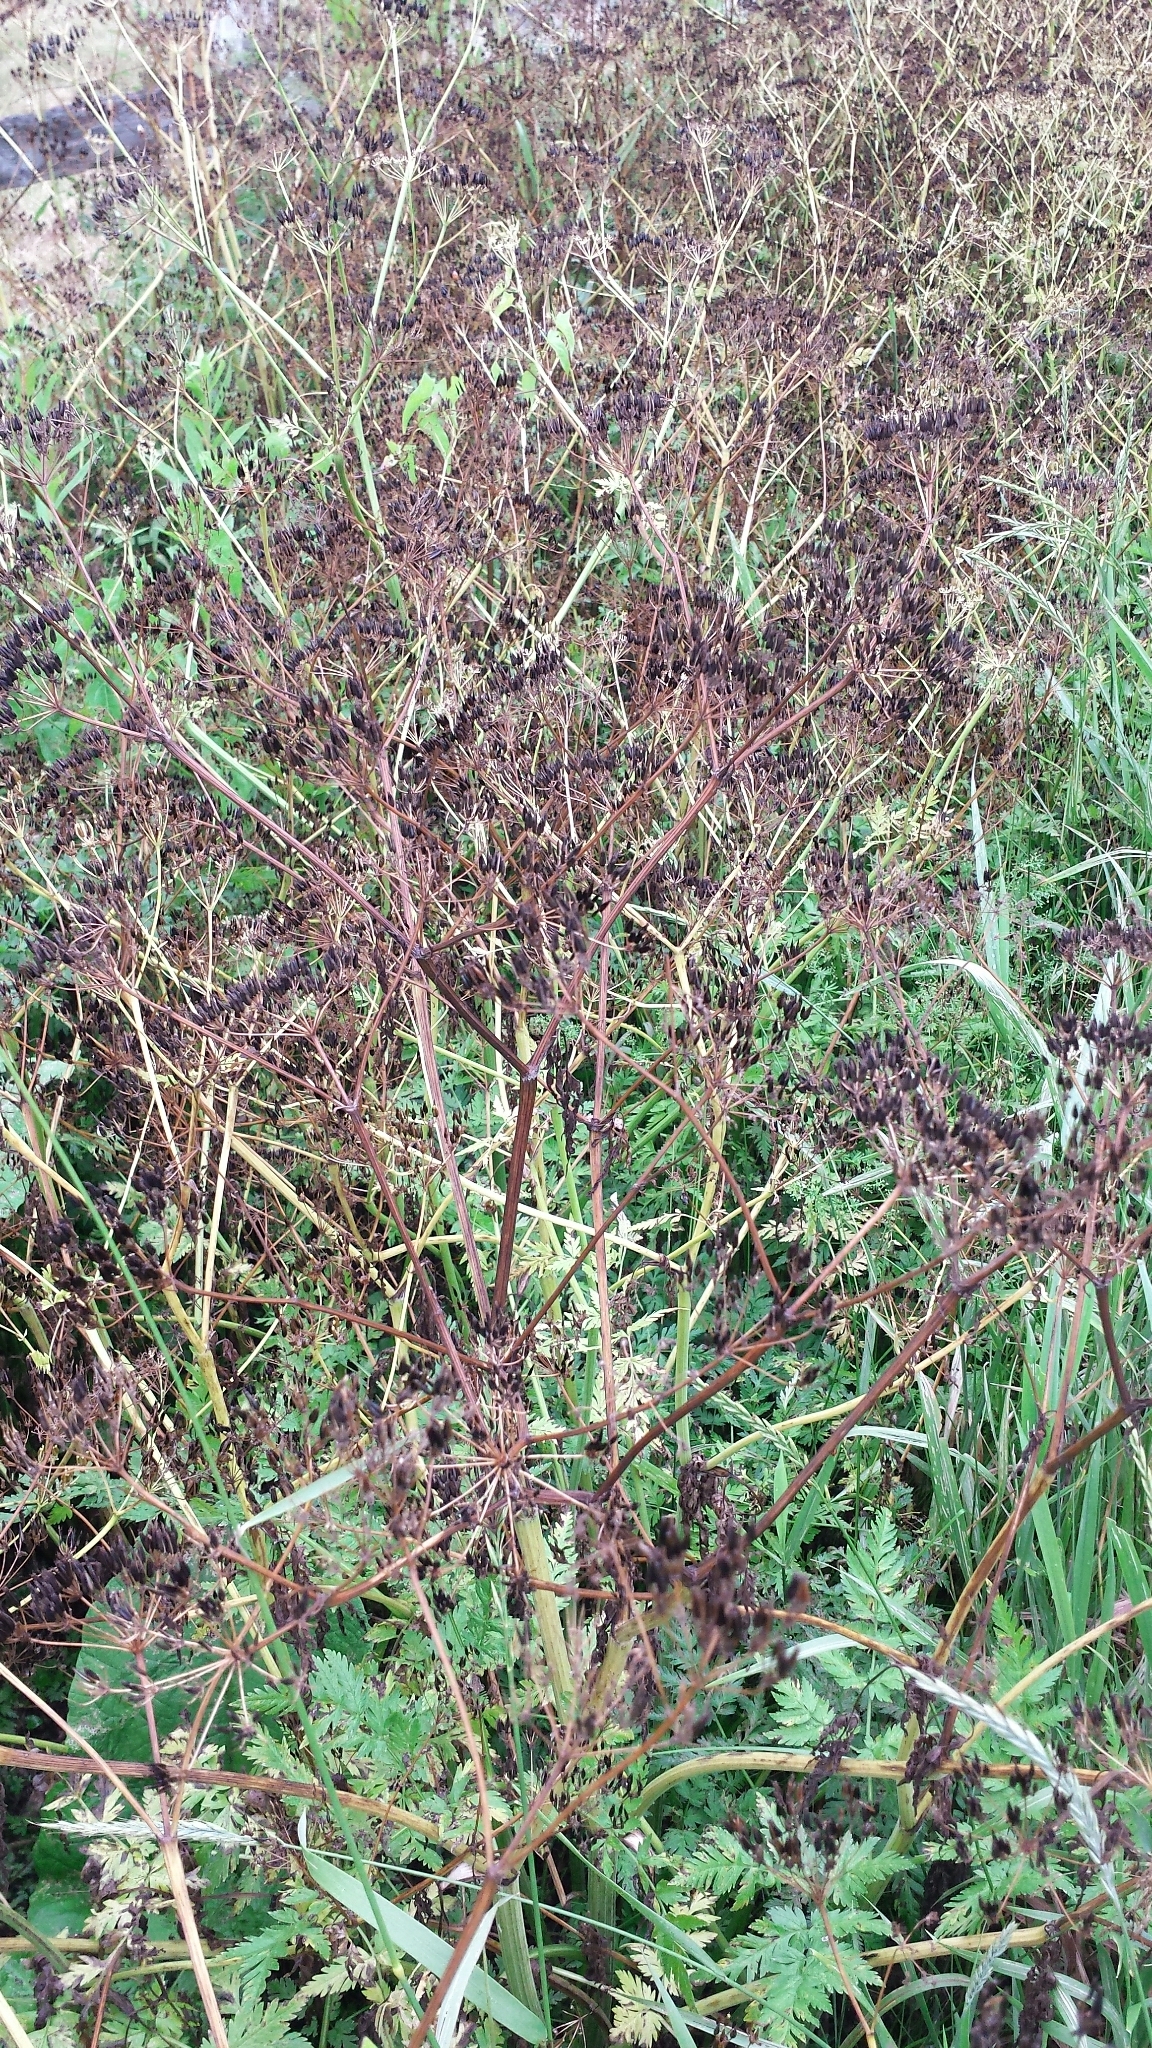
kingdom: Plantae
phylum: Tracheophyta
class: Magnoliopsida
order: Apiales
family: Apiaceae
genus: Anthriscus
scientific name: Anthriscus sylvestris
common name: Cow parsley
